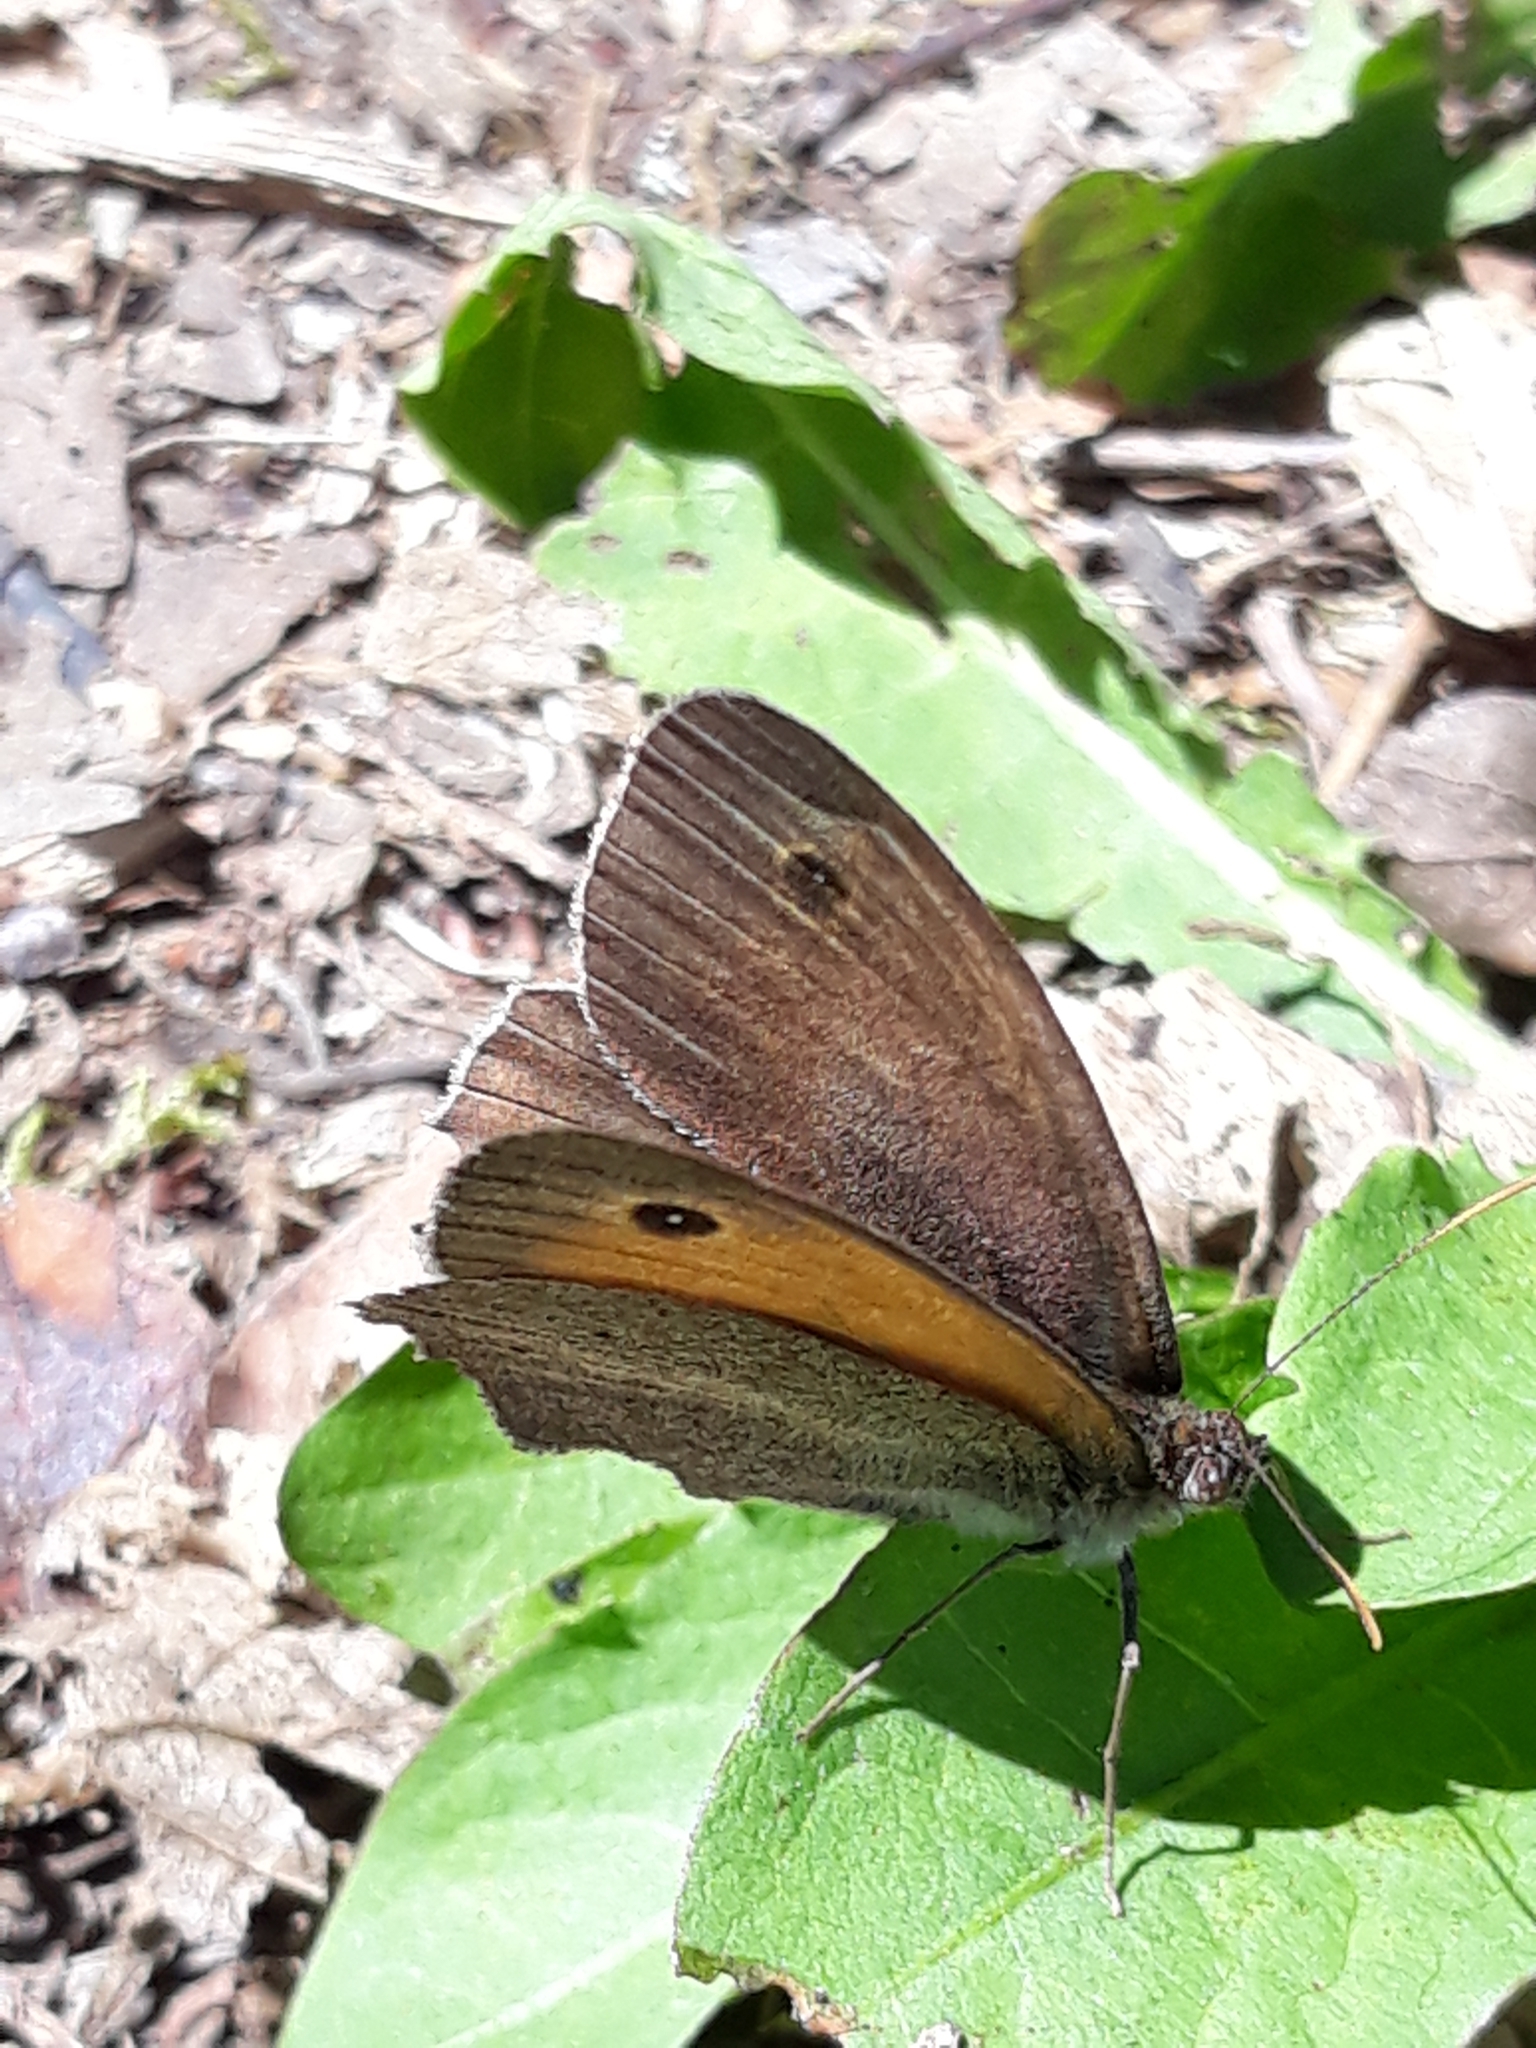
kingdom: Animalia
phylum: Arthropoda
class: Insecta
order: Lepidoptera
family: Nymphalidae
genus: Maniola
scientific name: Maniola jurtina
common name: Meadow brown
